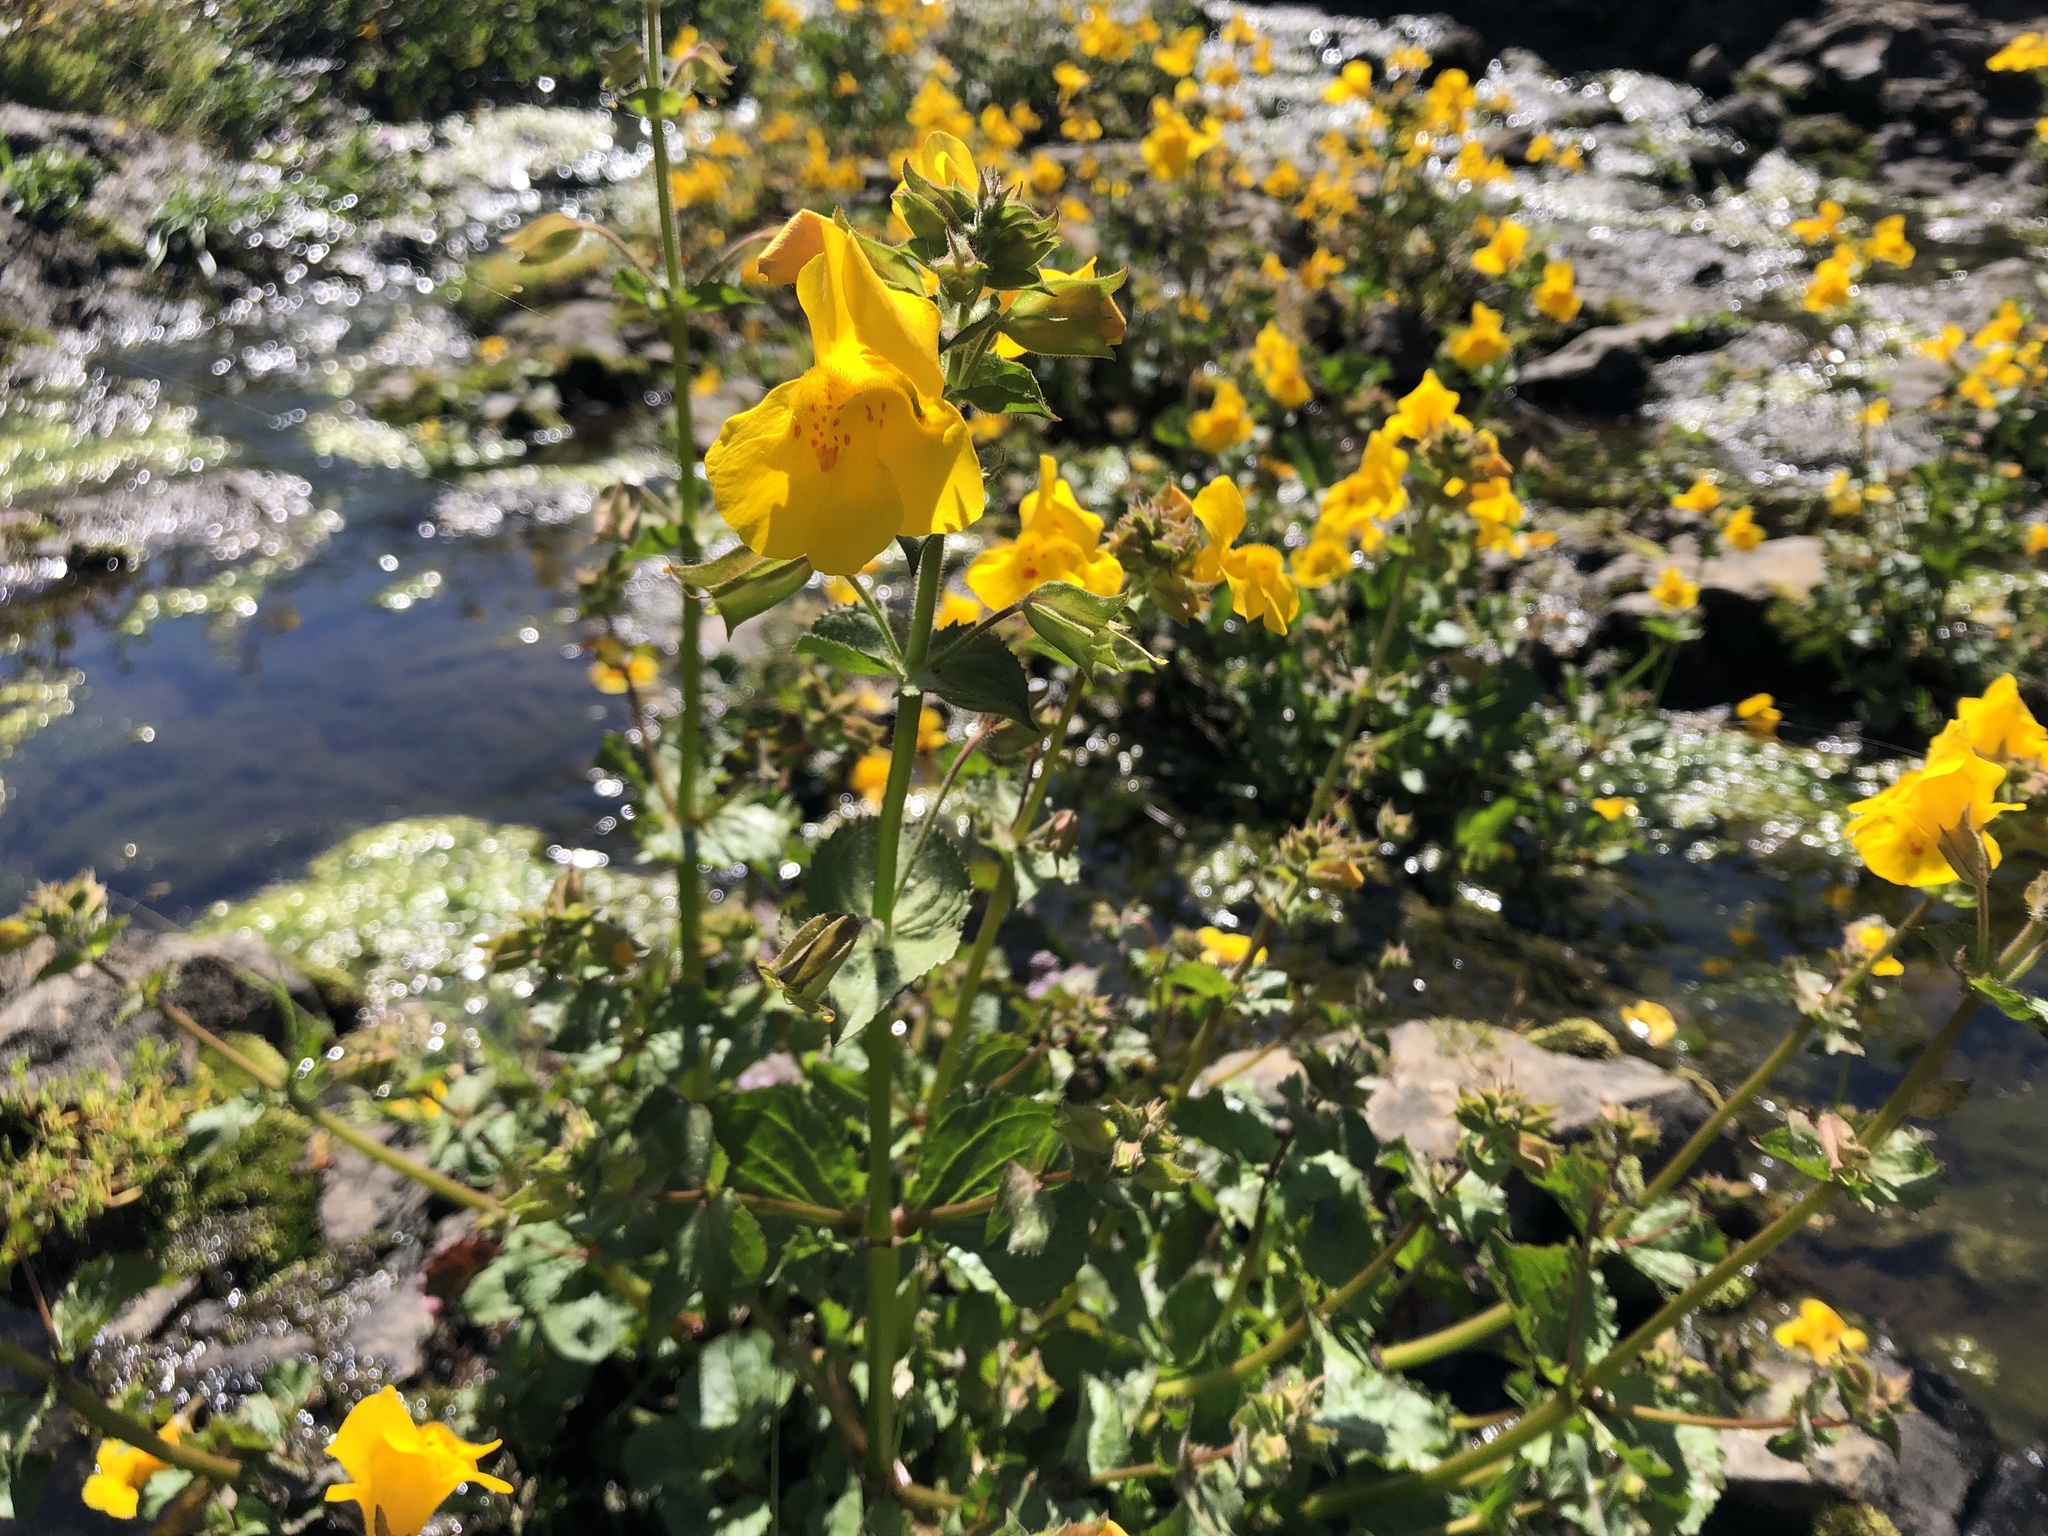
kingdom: Plantae
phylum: Tracheophyta
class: Magnoliopsida
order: Lamiales
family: Phrymaceae
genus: Erythranthe
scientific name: Erythranthe guttata
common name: Monkeyflower
